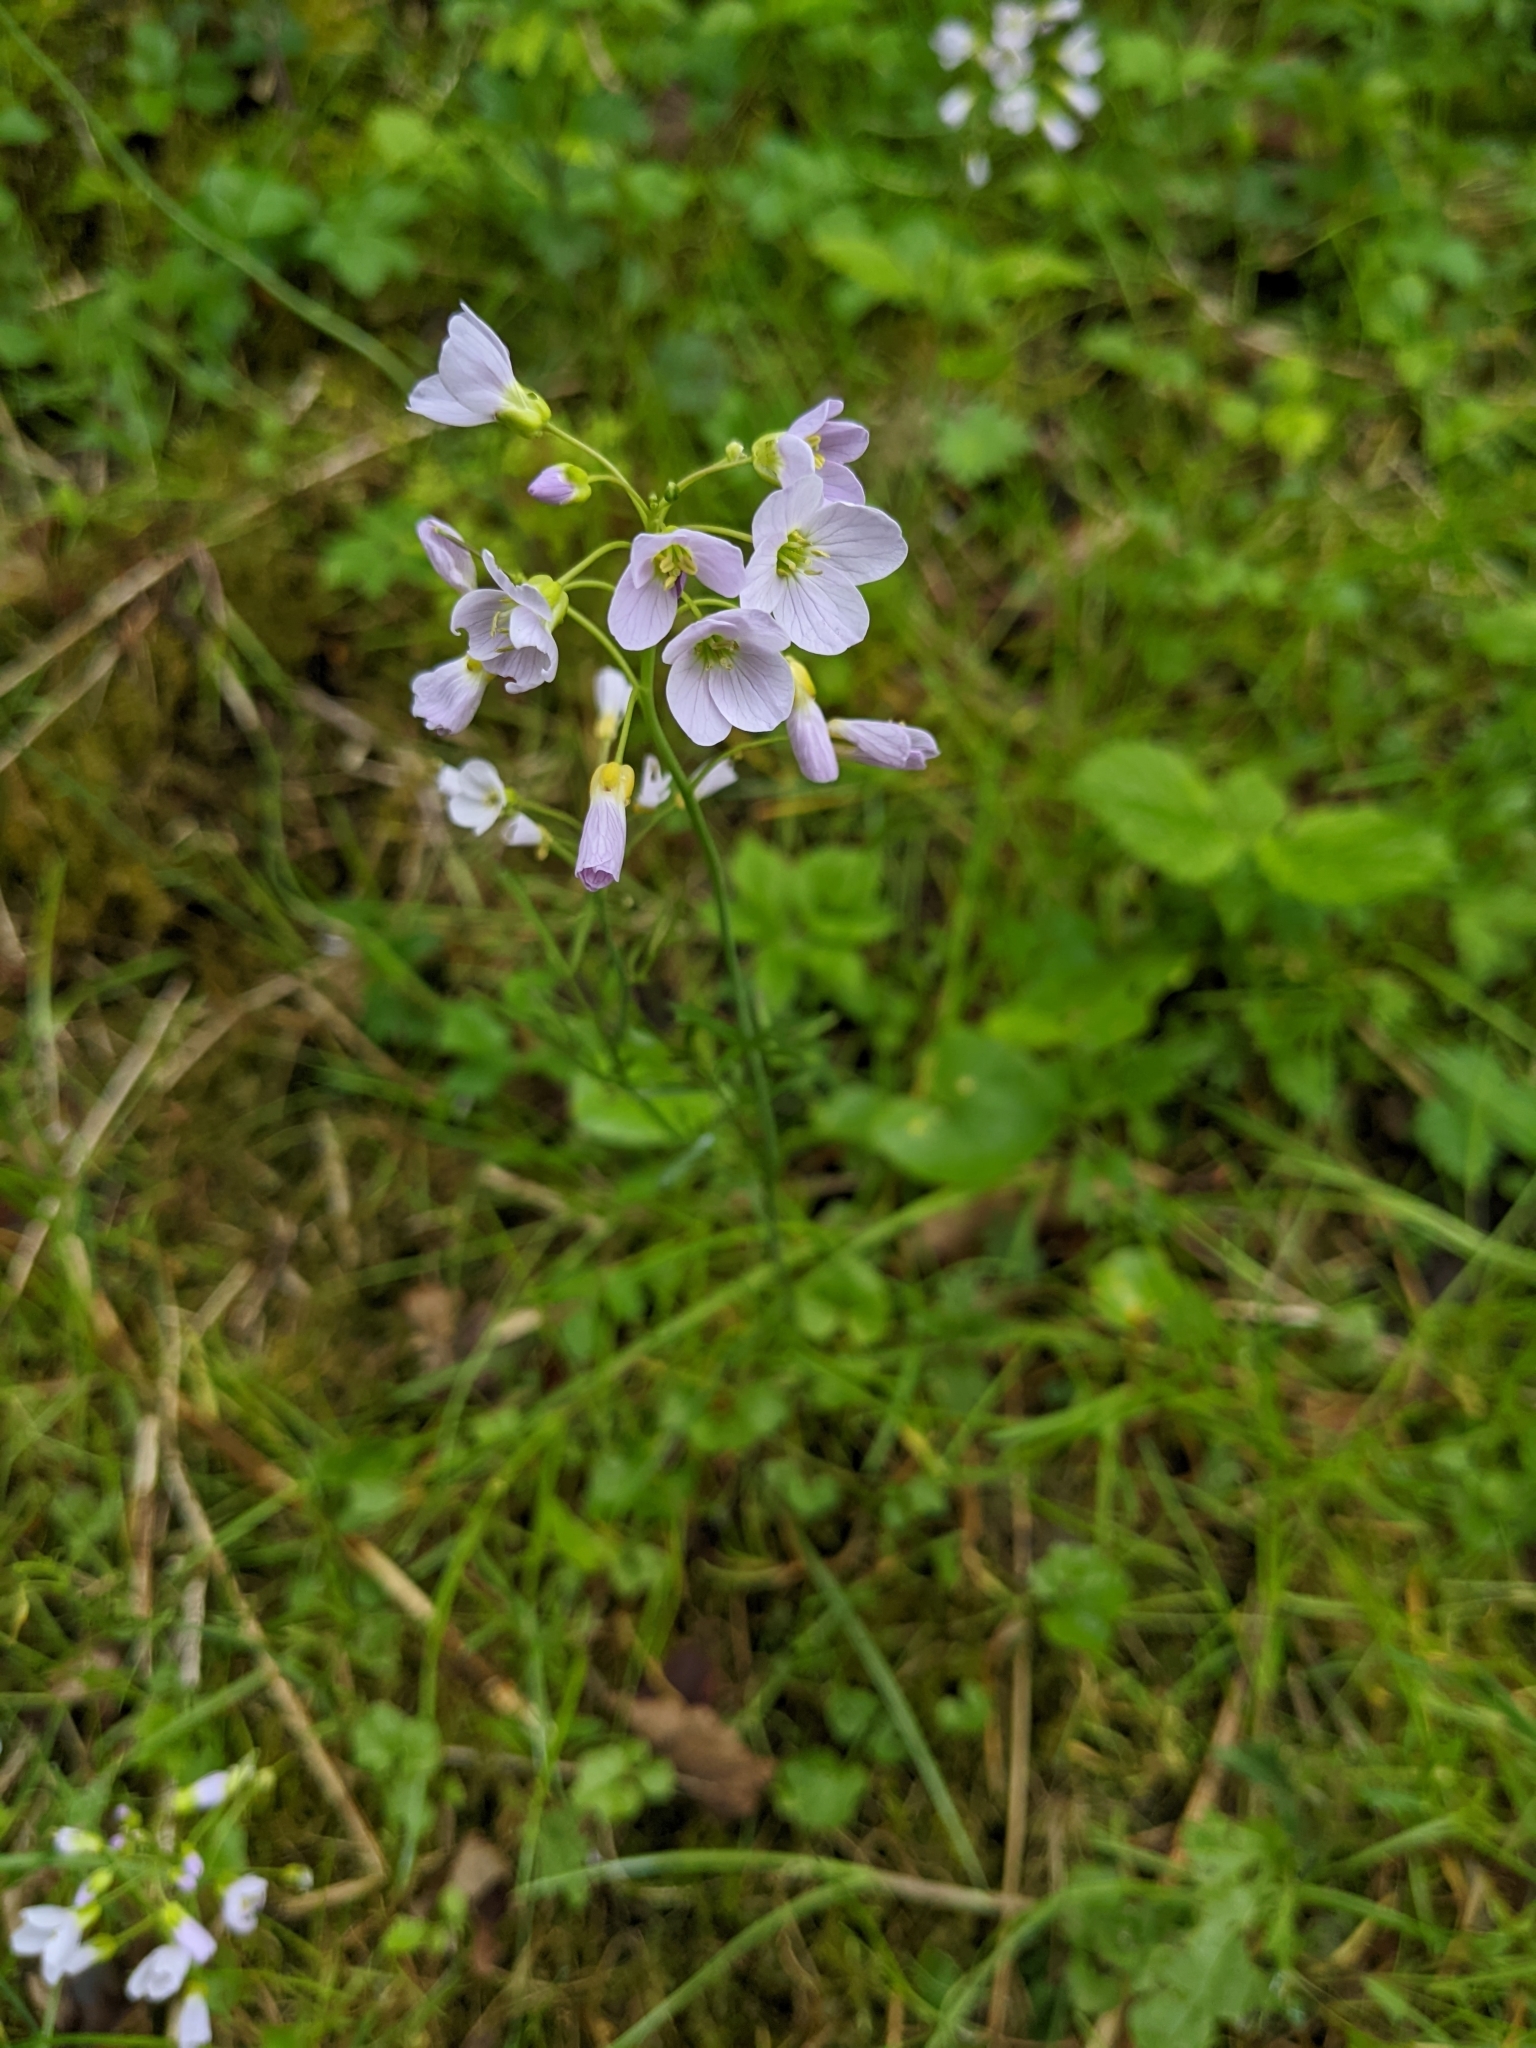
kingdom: Plantae
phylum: Tracheophyta
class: Magnoliopsida
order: Brassicales
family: Brassicaceae
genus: Cardamine
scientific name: Cardamine pratensis
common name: Cuckoo flower
